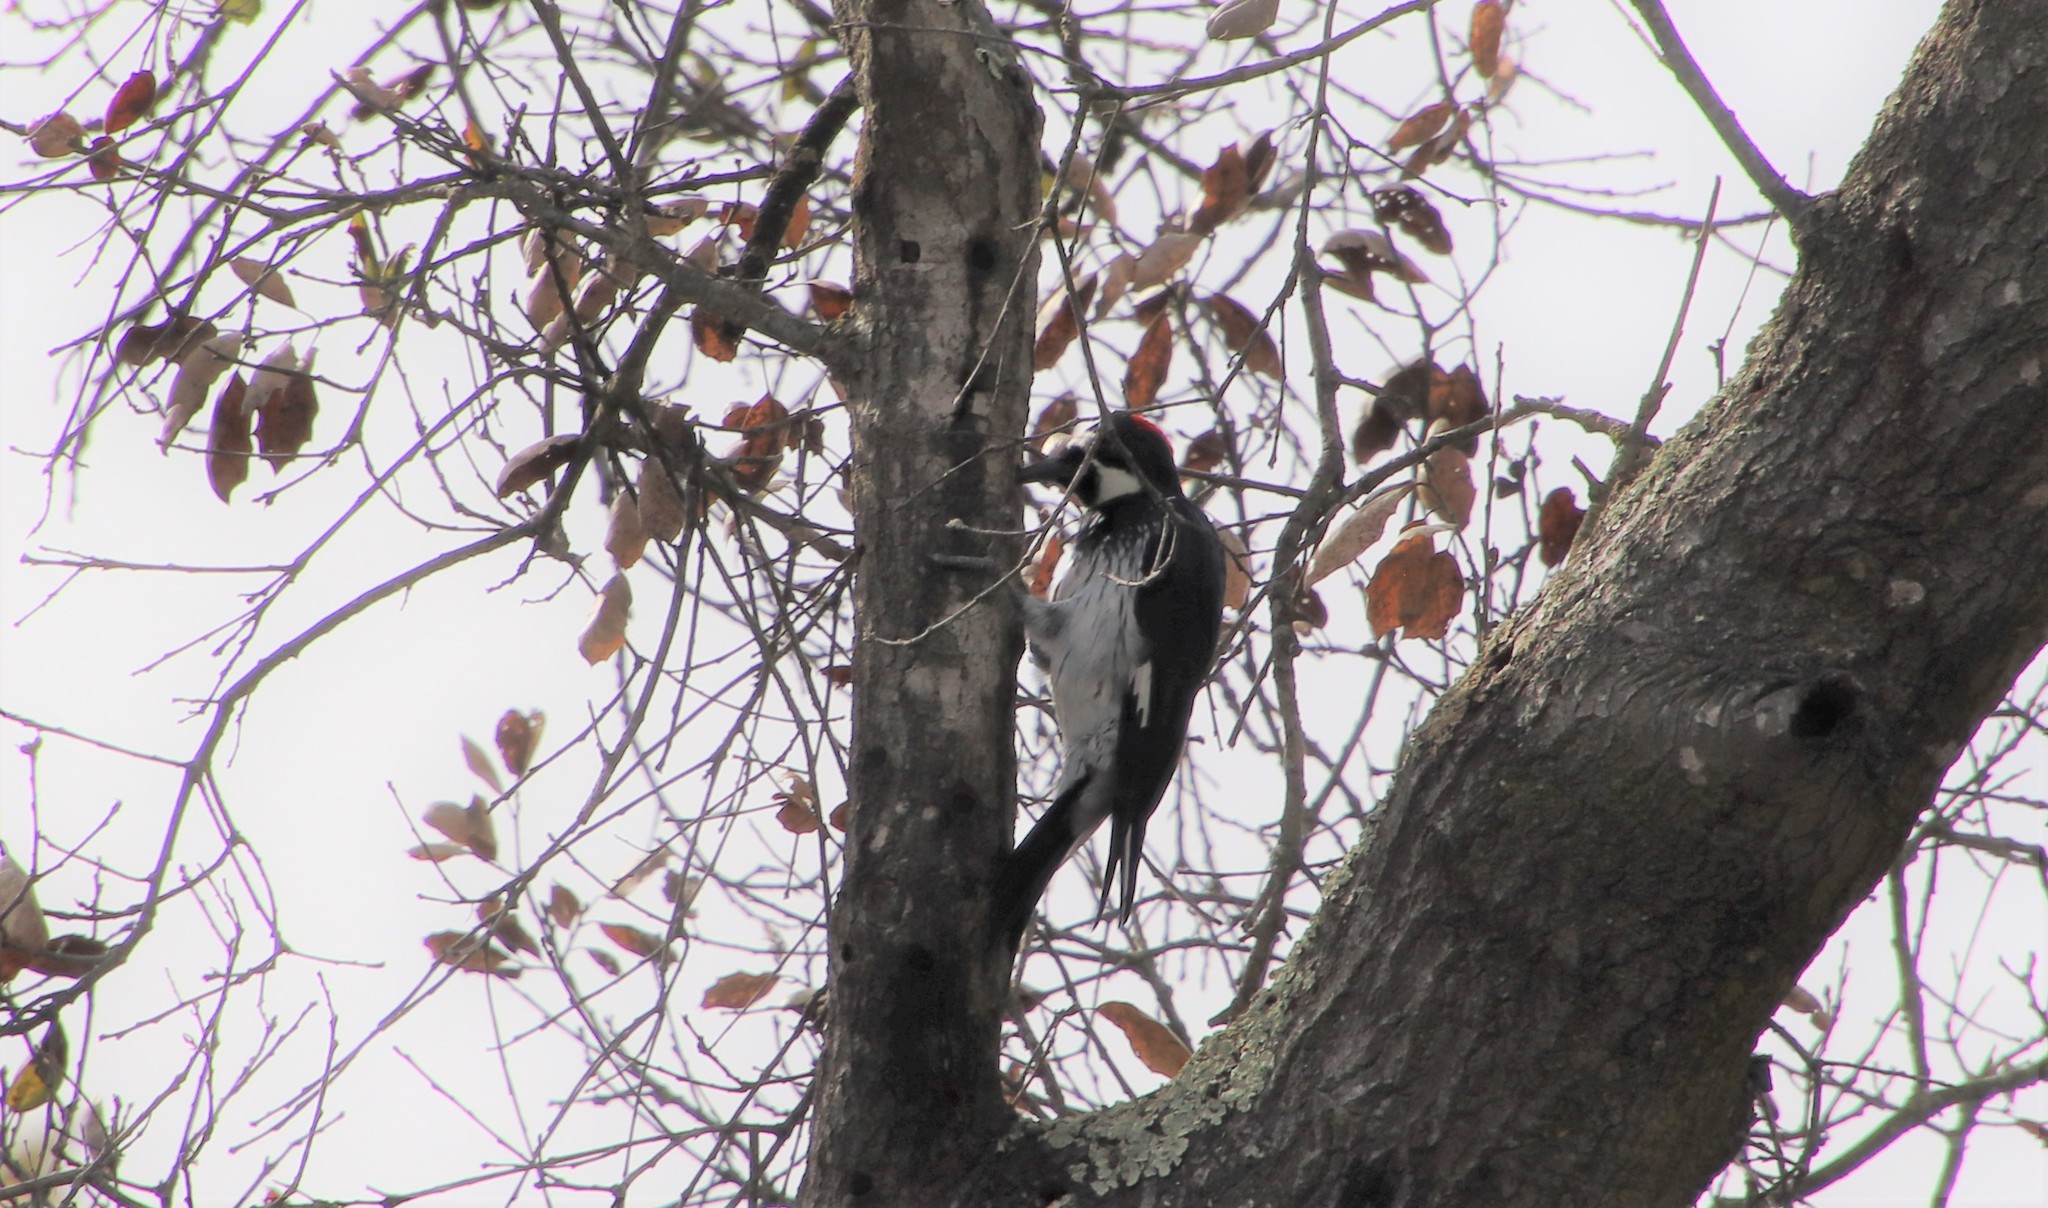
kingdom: Animalia
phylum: Chordata
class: Aves
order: Piciformes
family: Picidae
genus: Melanerpes
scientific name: Melanerpes formicivorus
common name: Acorn woodpecker
